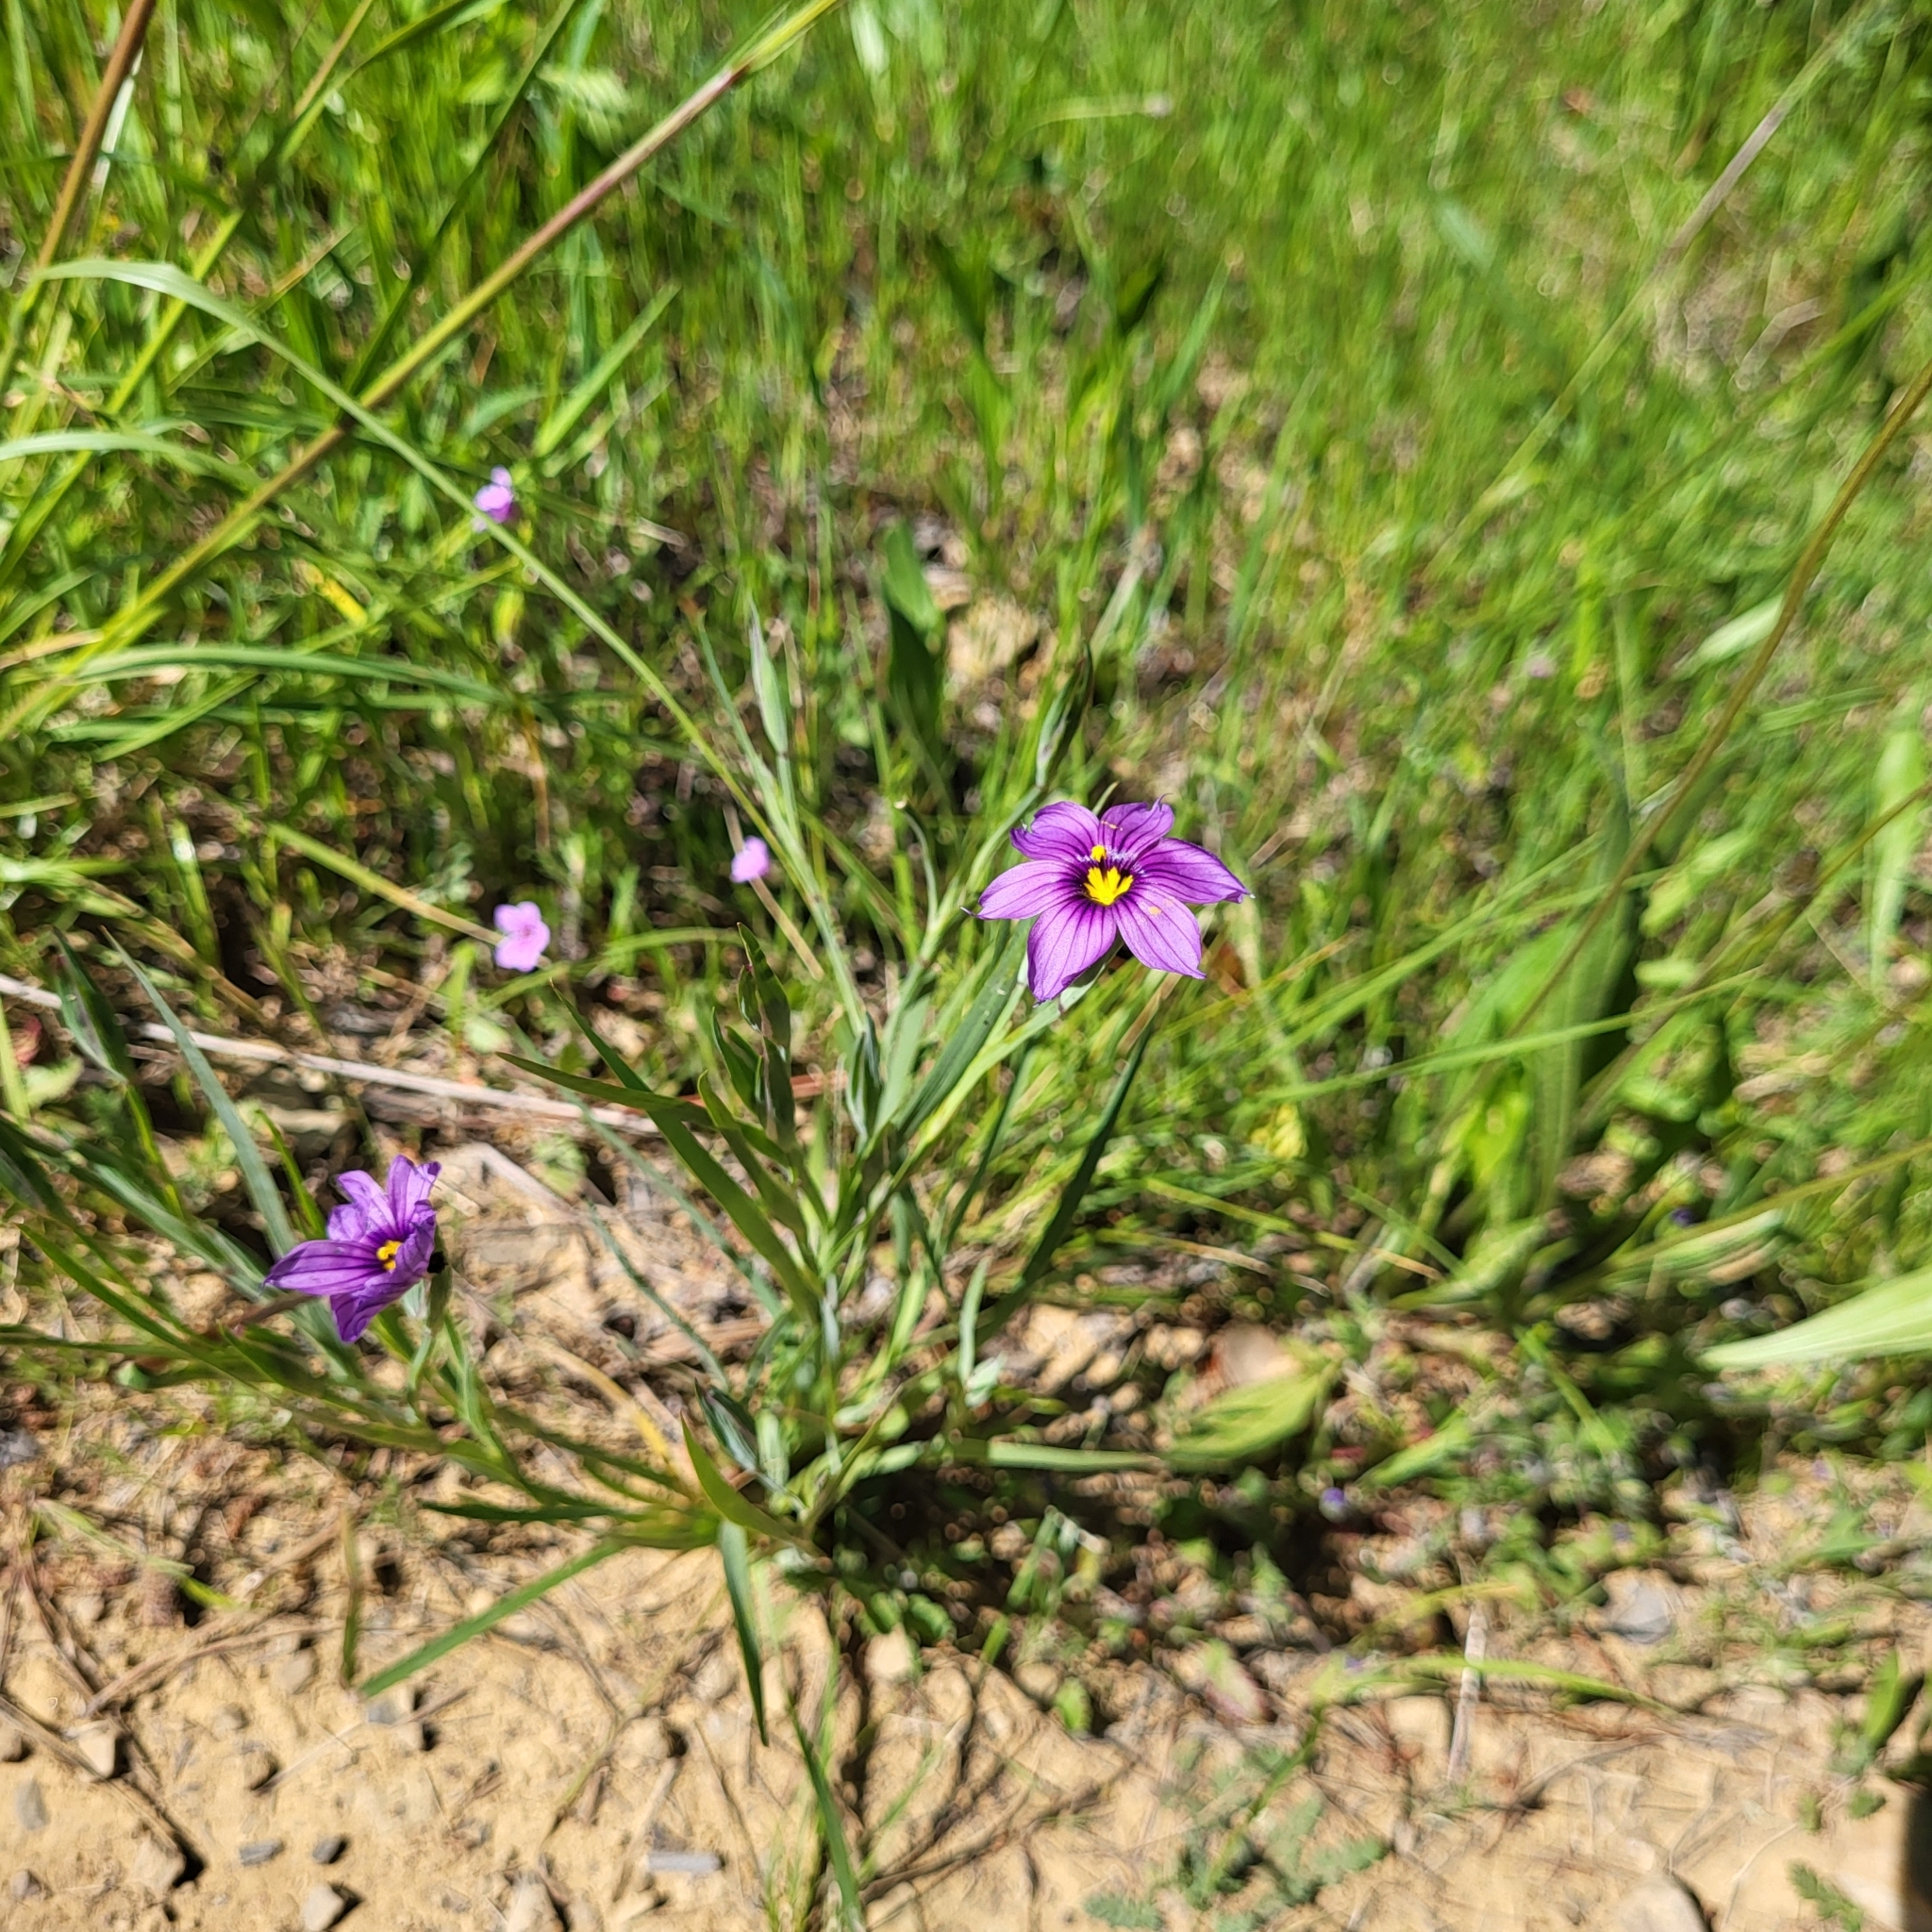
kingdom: Plantae
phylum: Tracheophyta
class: Liliopsida
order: Asparagales
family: Iridaceae
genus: Sisyrinchium
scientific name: Sisyrinchium bellum
